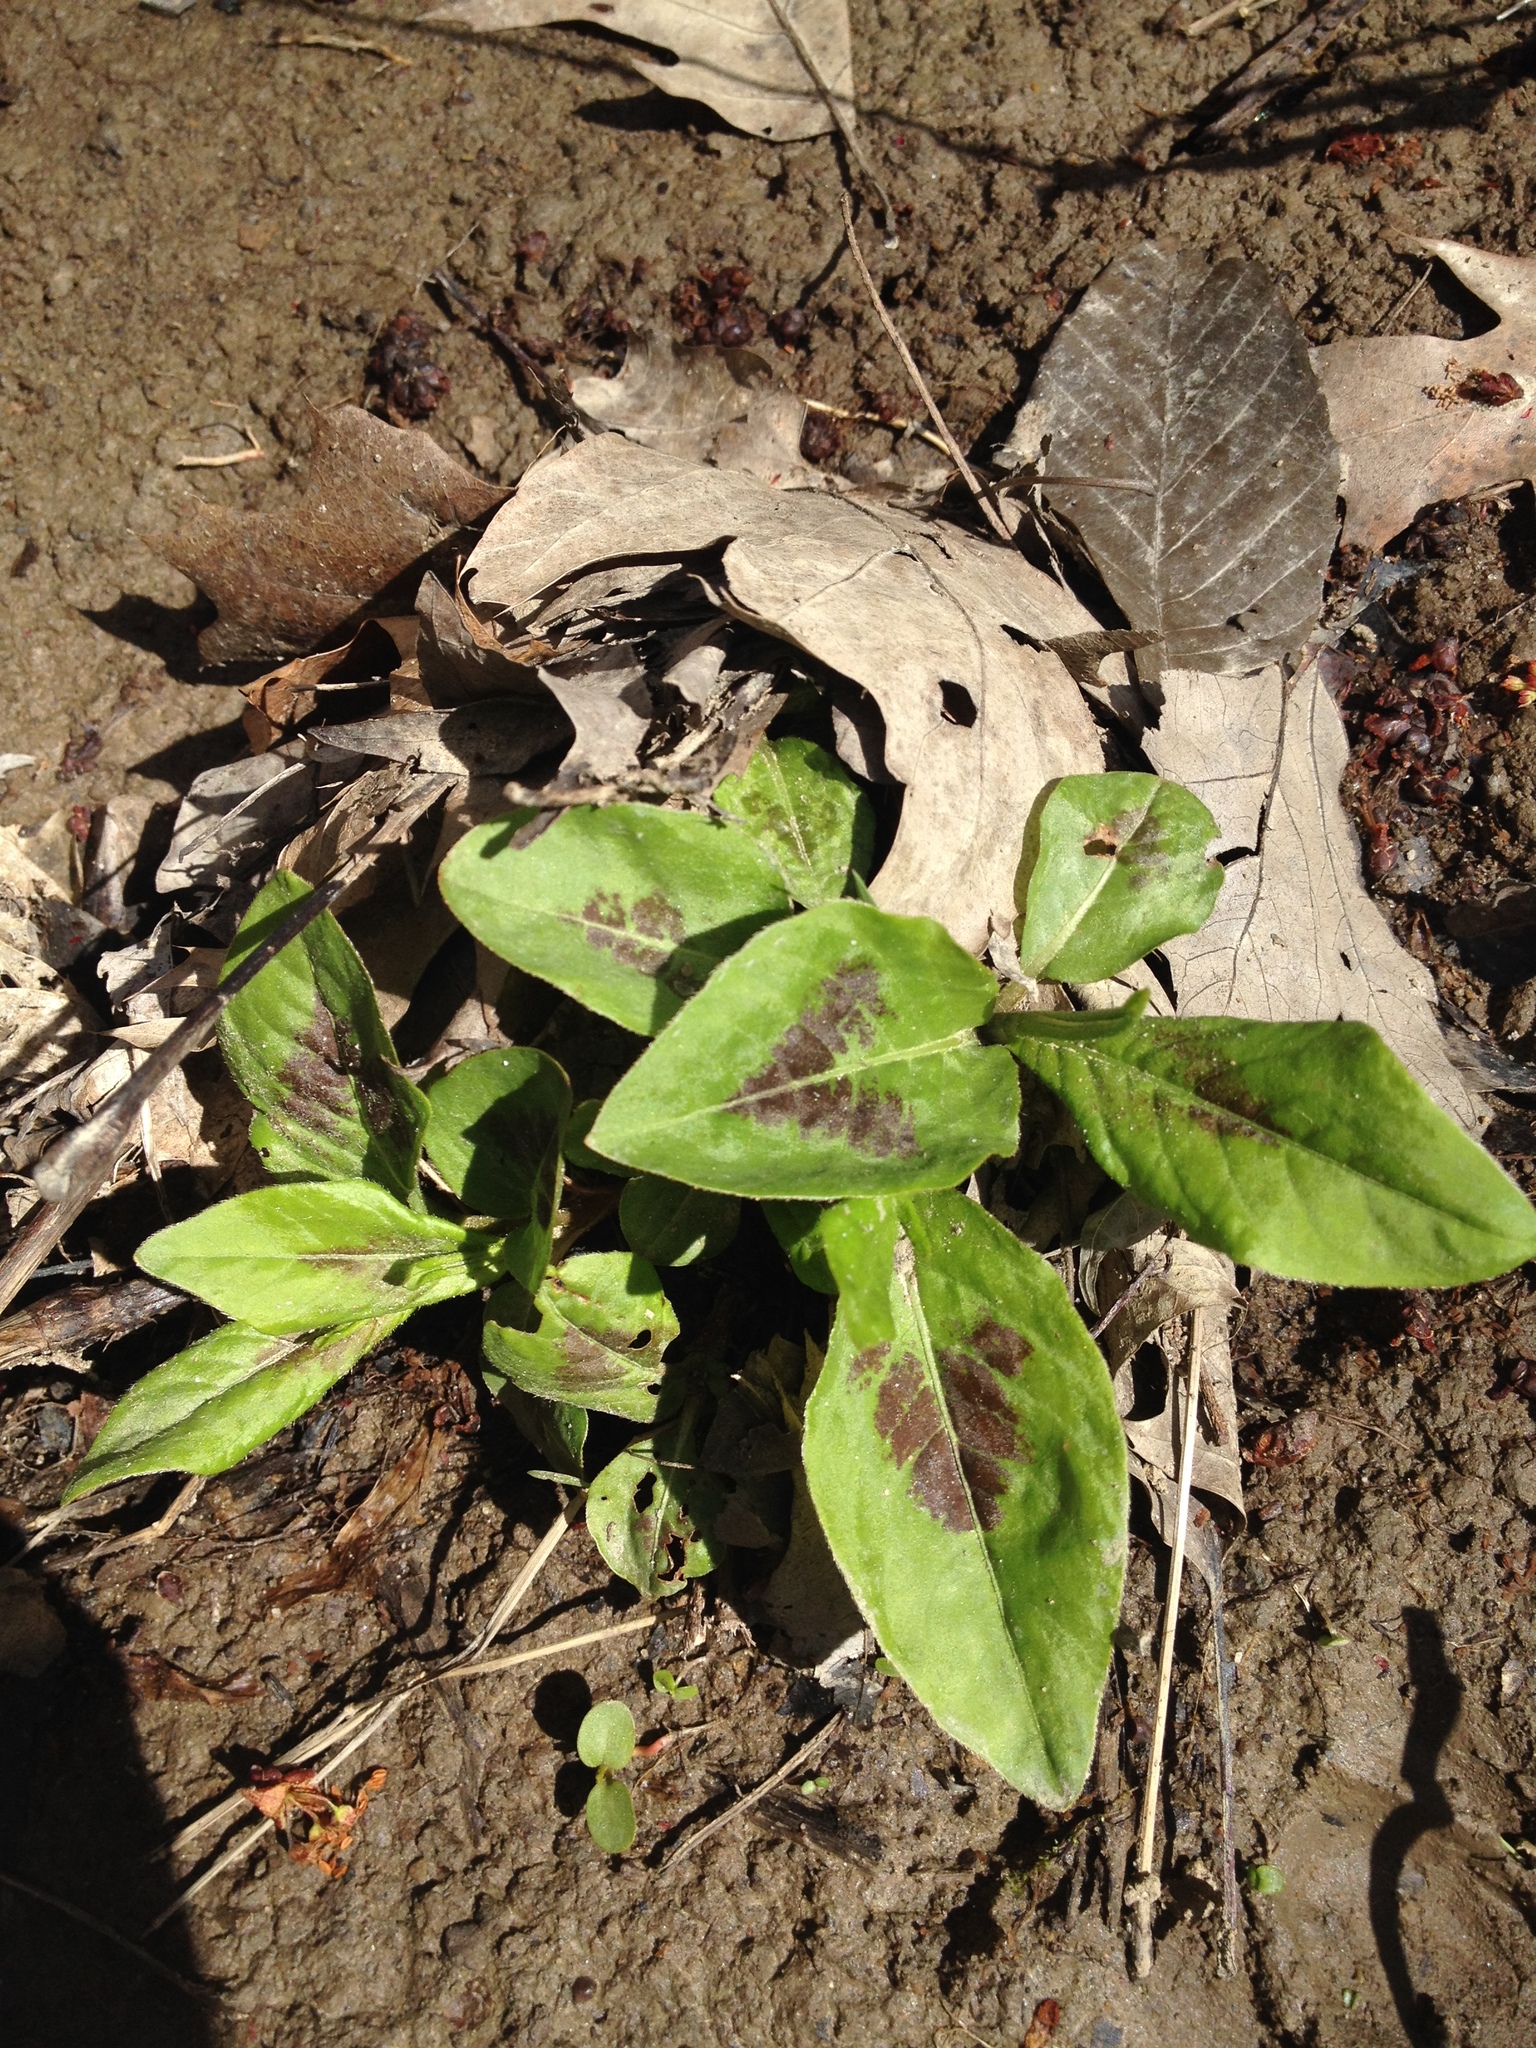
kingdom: Plantae
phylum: Tracheophyta
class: Magnoliopsida
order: Caryophyllales
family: Polygonaceae
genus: Persicaria
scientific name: Persicaria virginiana
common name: Jumpseed
